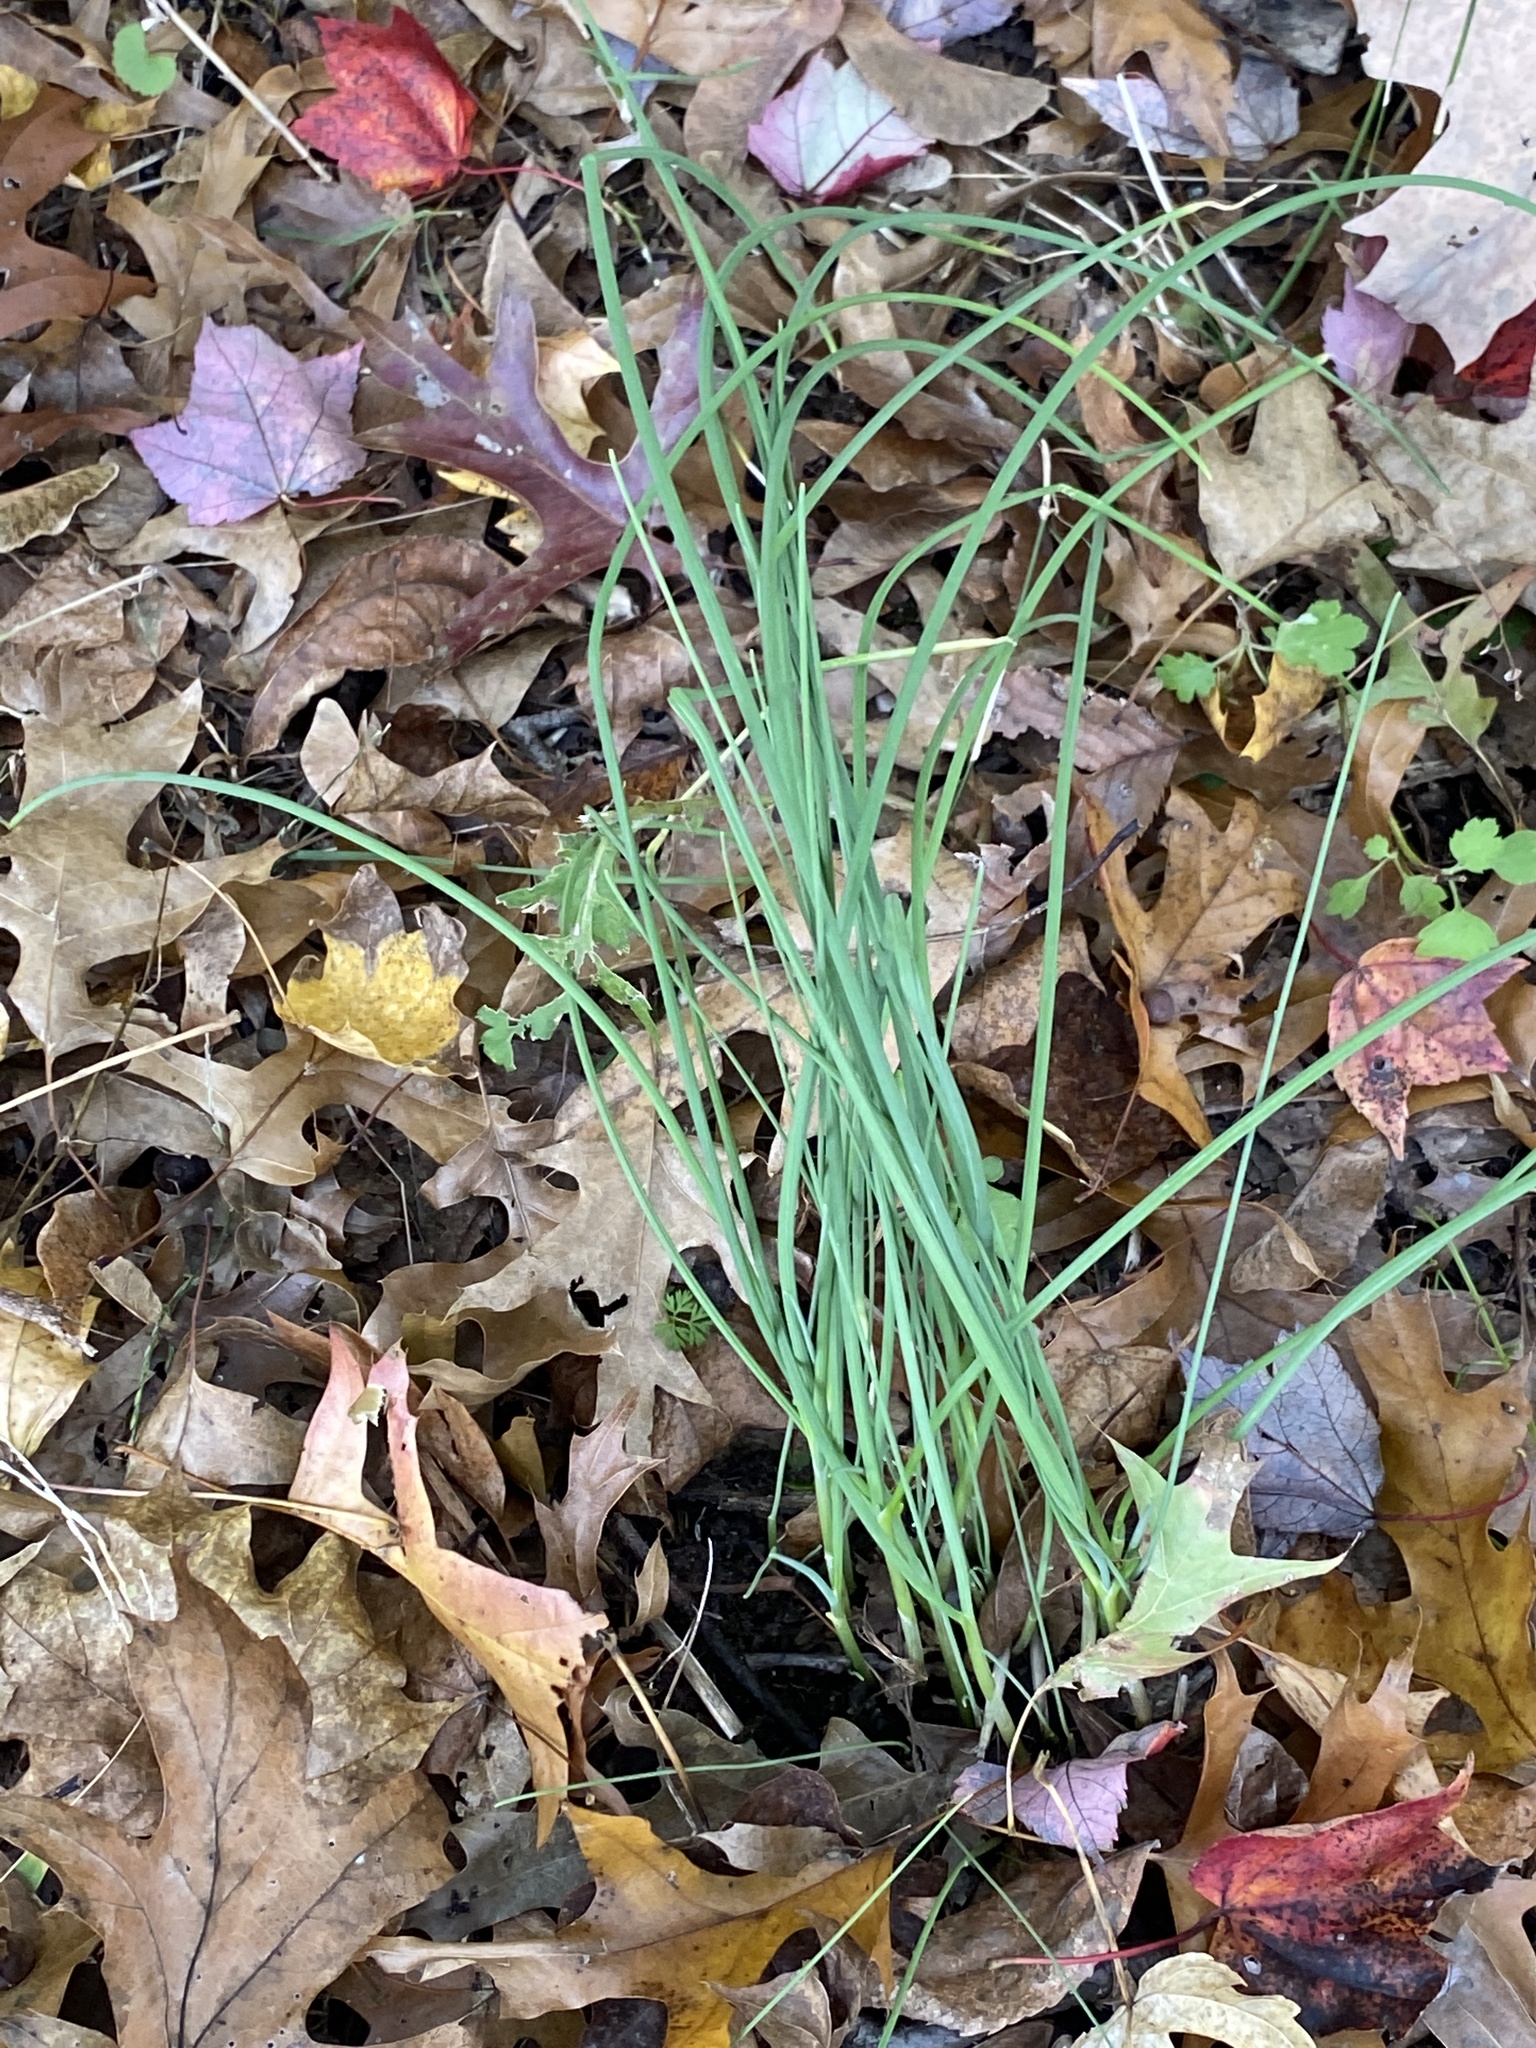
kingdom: Plantae
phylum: Tracheophyta
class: Liliopsida
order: Asparagales
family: Amaryllidaceae
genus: Allium
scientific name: Allium vineale
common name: Crow garlic
